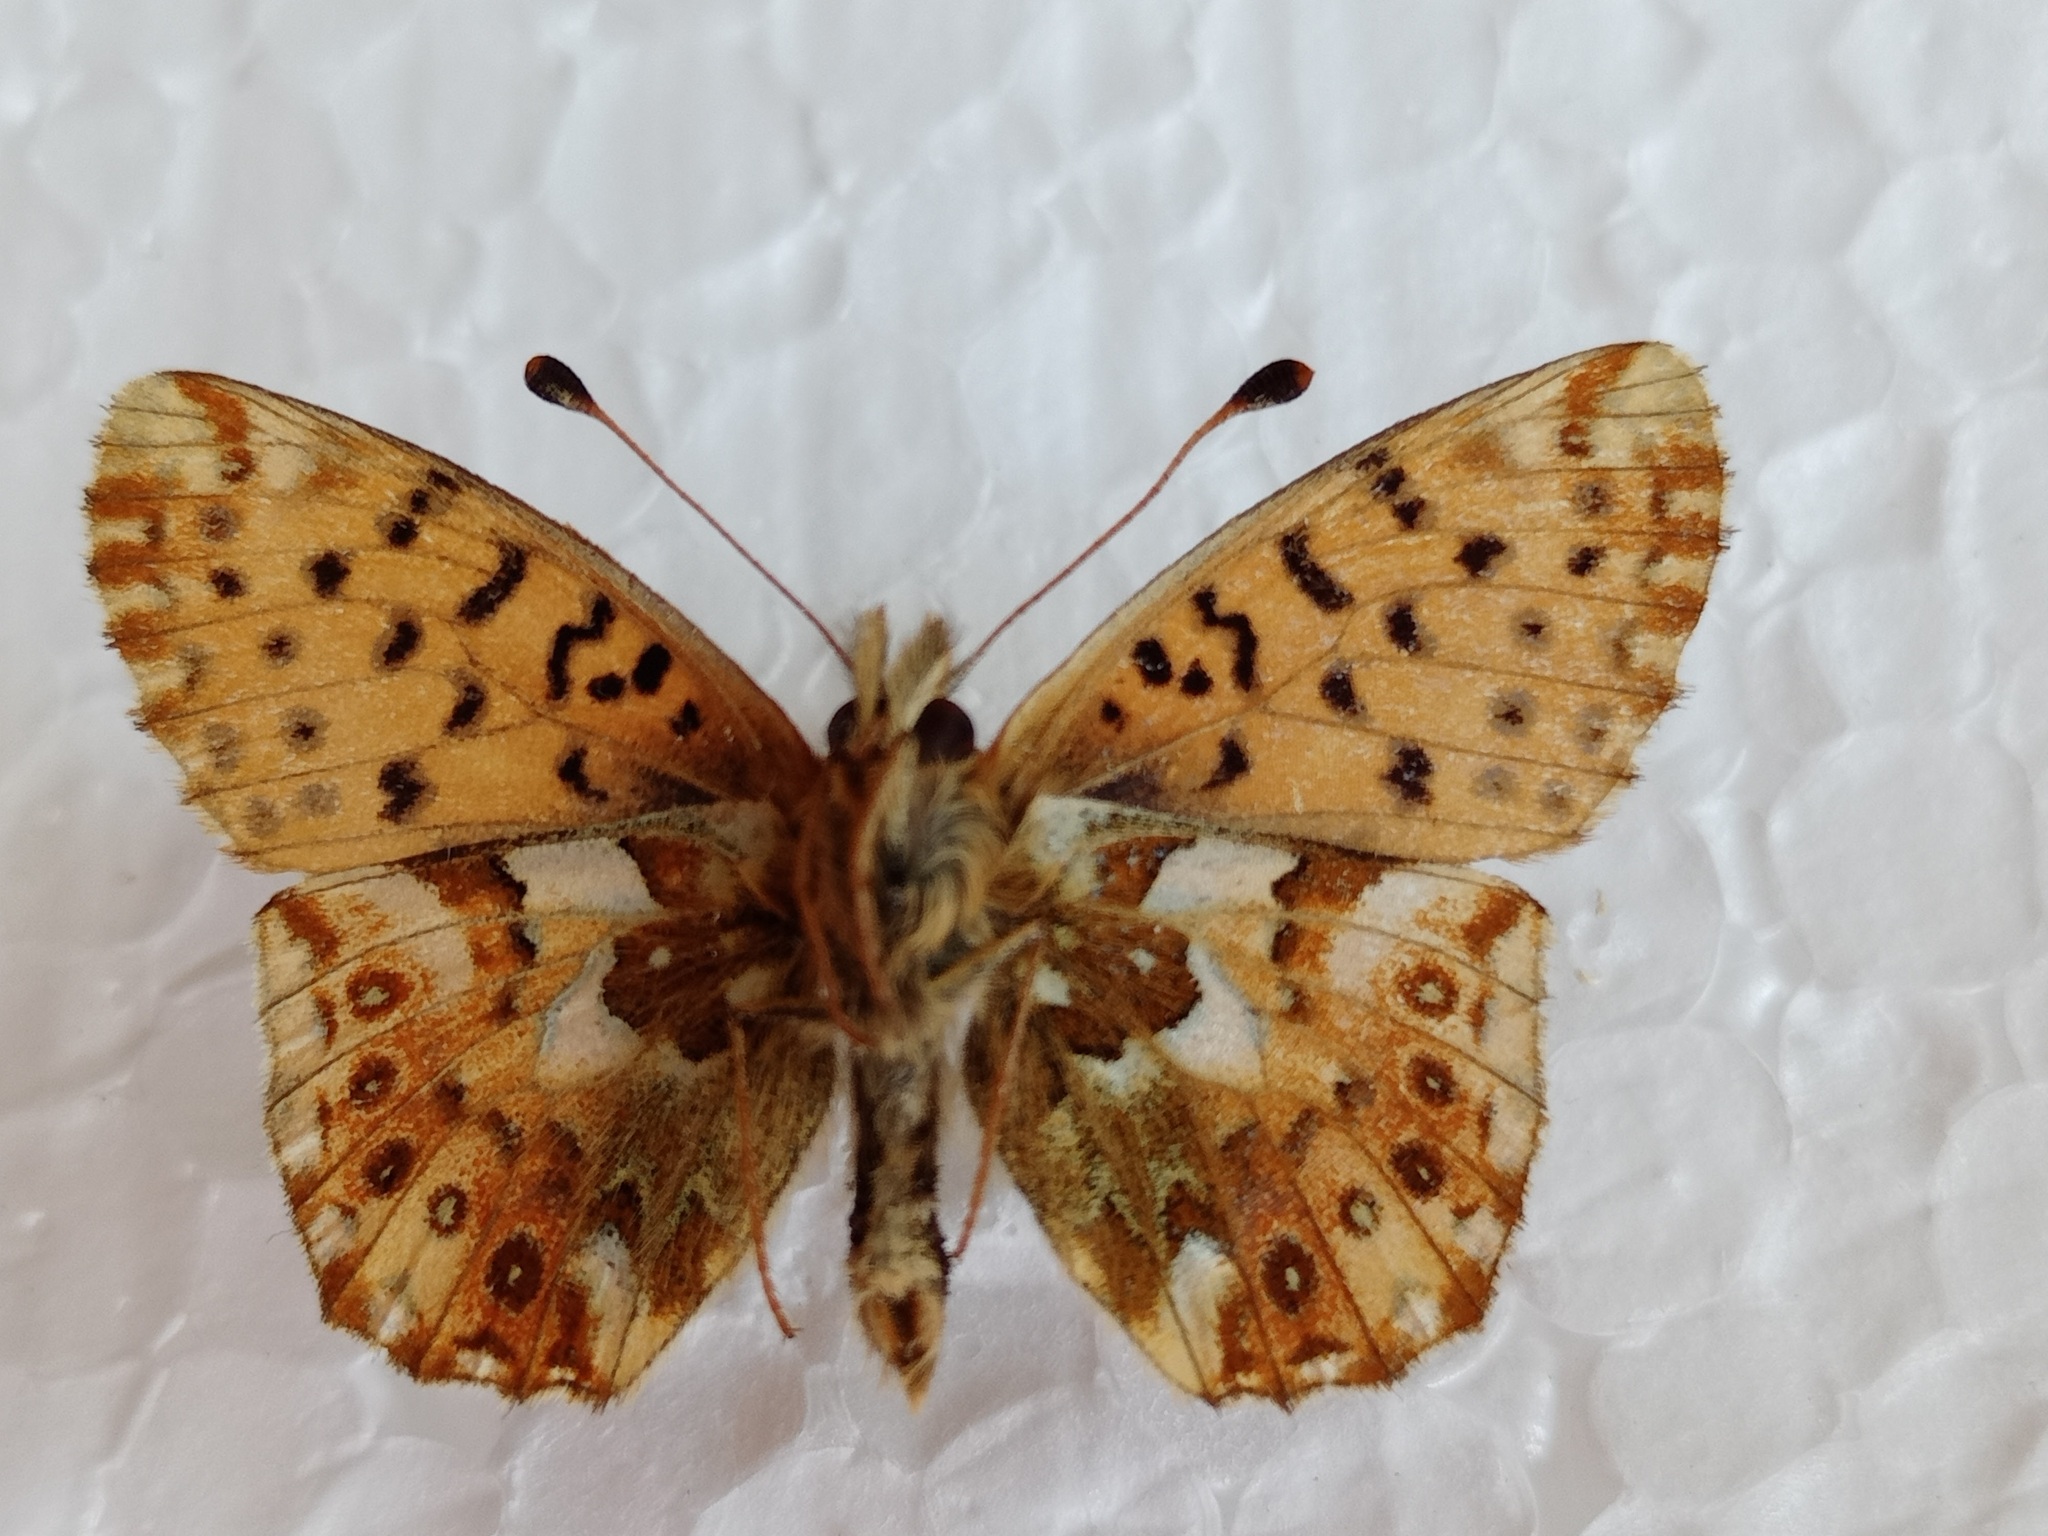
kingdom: Animalia
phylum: Arthropoda
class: Insecta
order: Lepidoptera
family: Nymphalidae
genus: Boloria
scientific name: Boloria graeca
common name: Balkan fritillary
